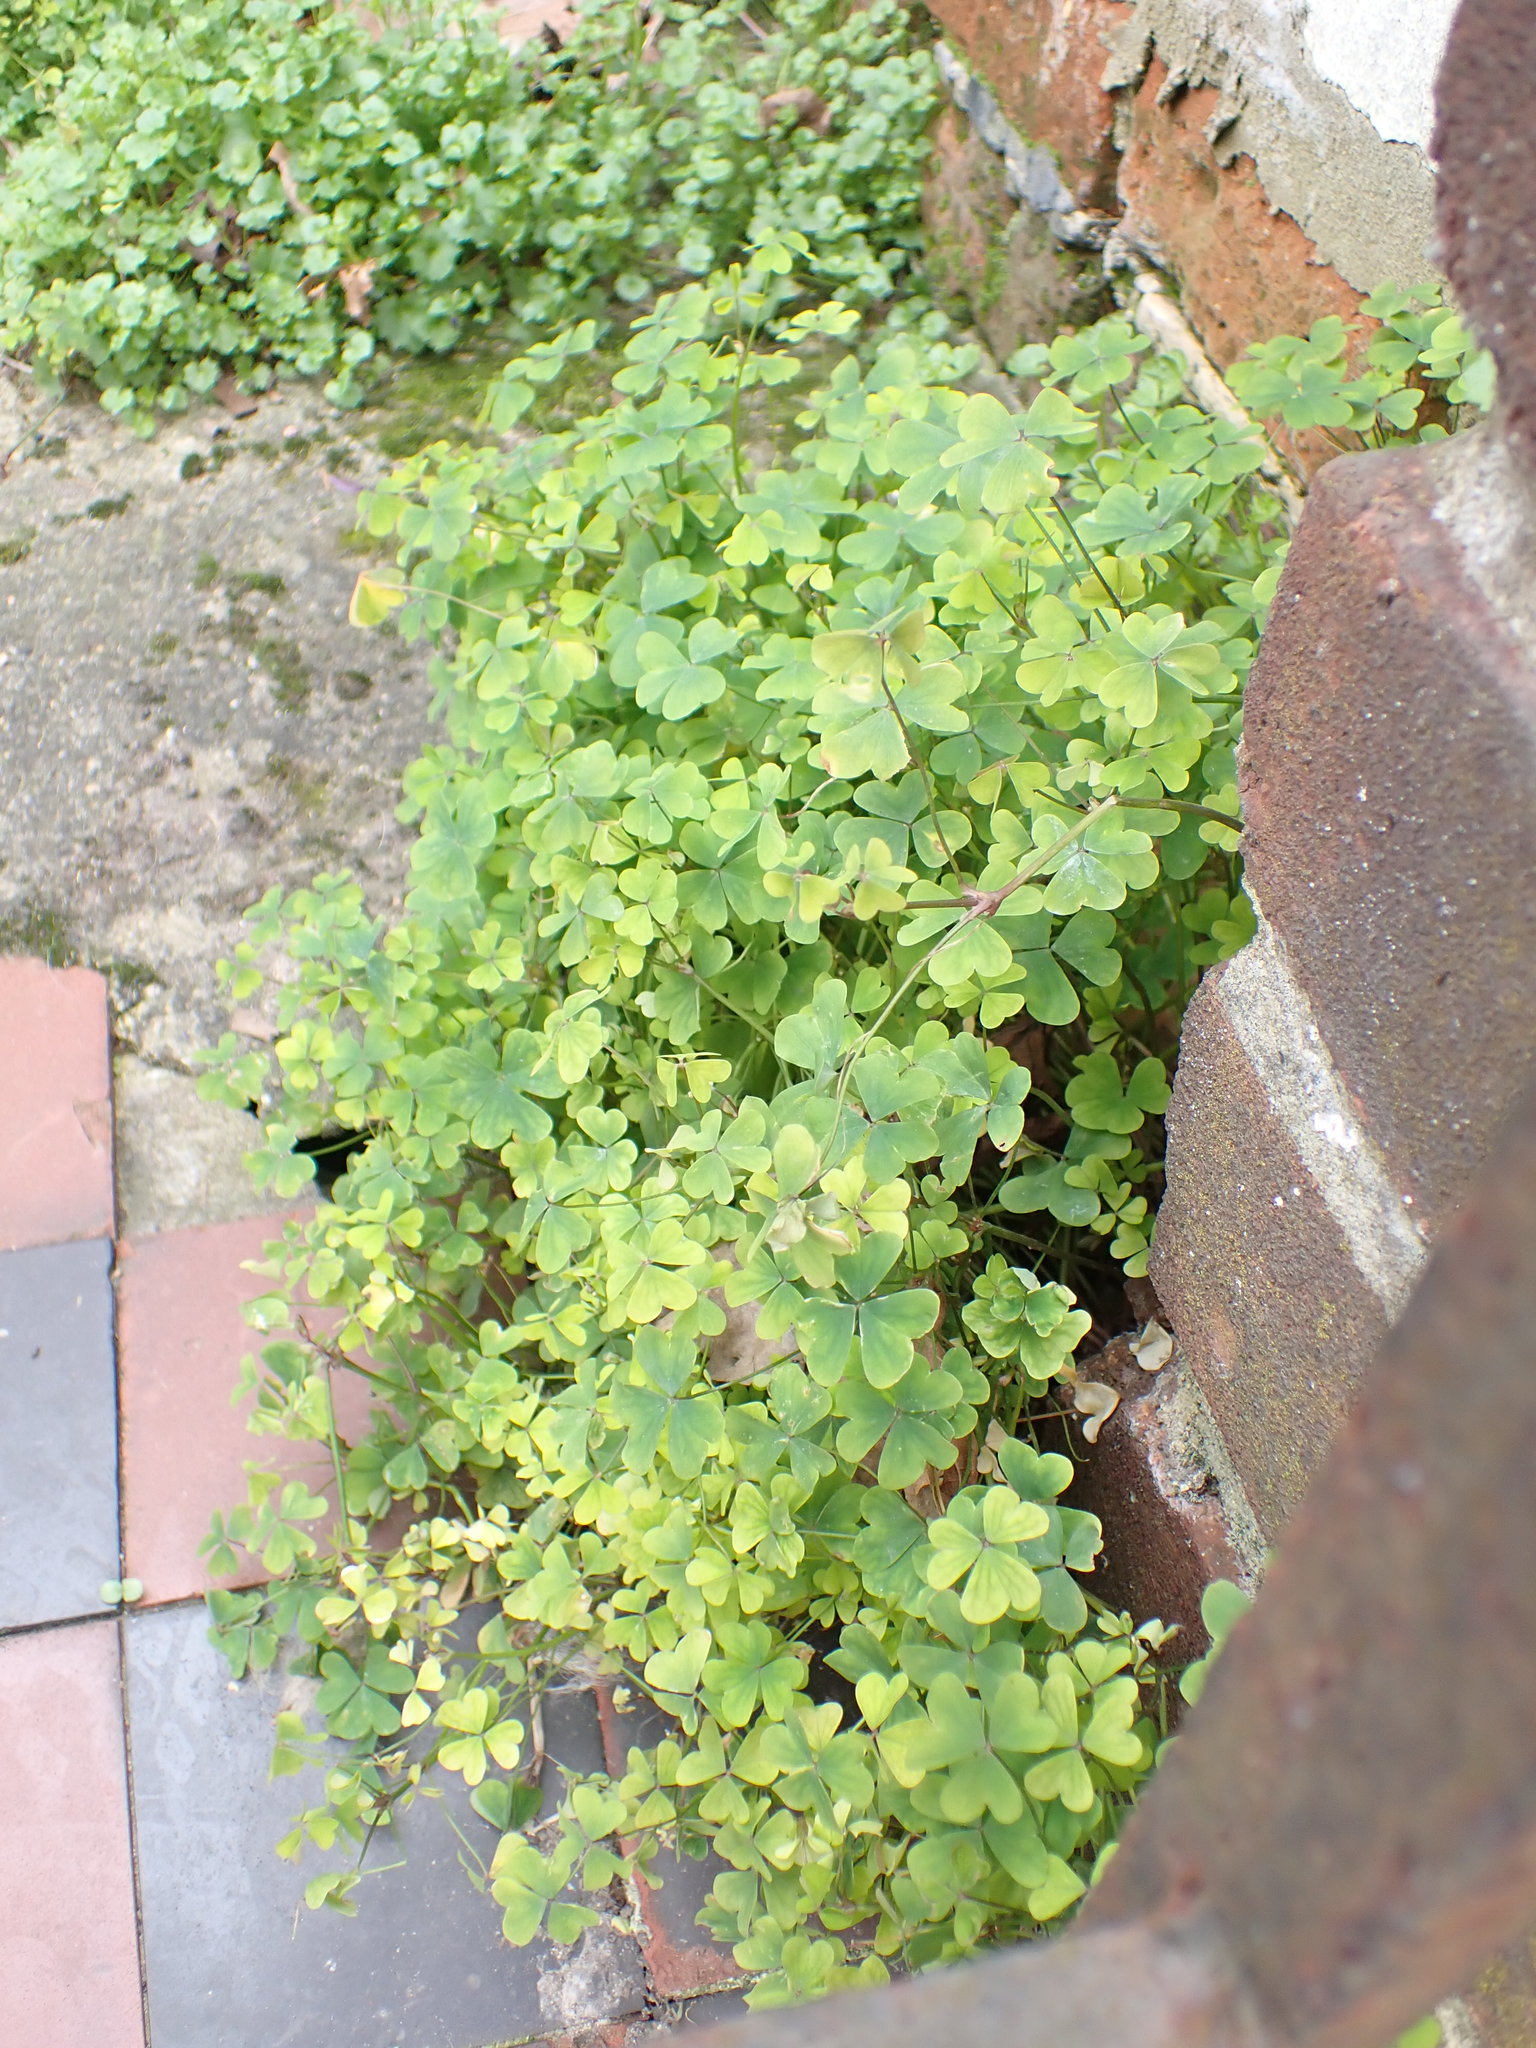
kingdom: Plantae
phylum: Tracheophyta
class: Magnoliopsida
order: Oxalidales
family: Oxalidaceae
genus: Oxalis
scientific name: Oxalis incarnata
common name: Pale pink-sorrel
